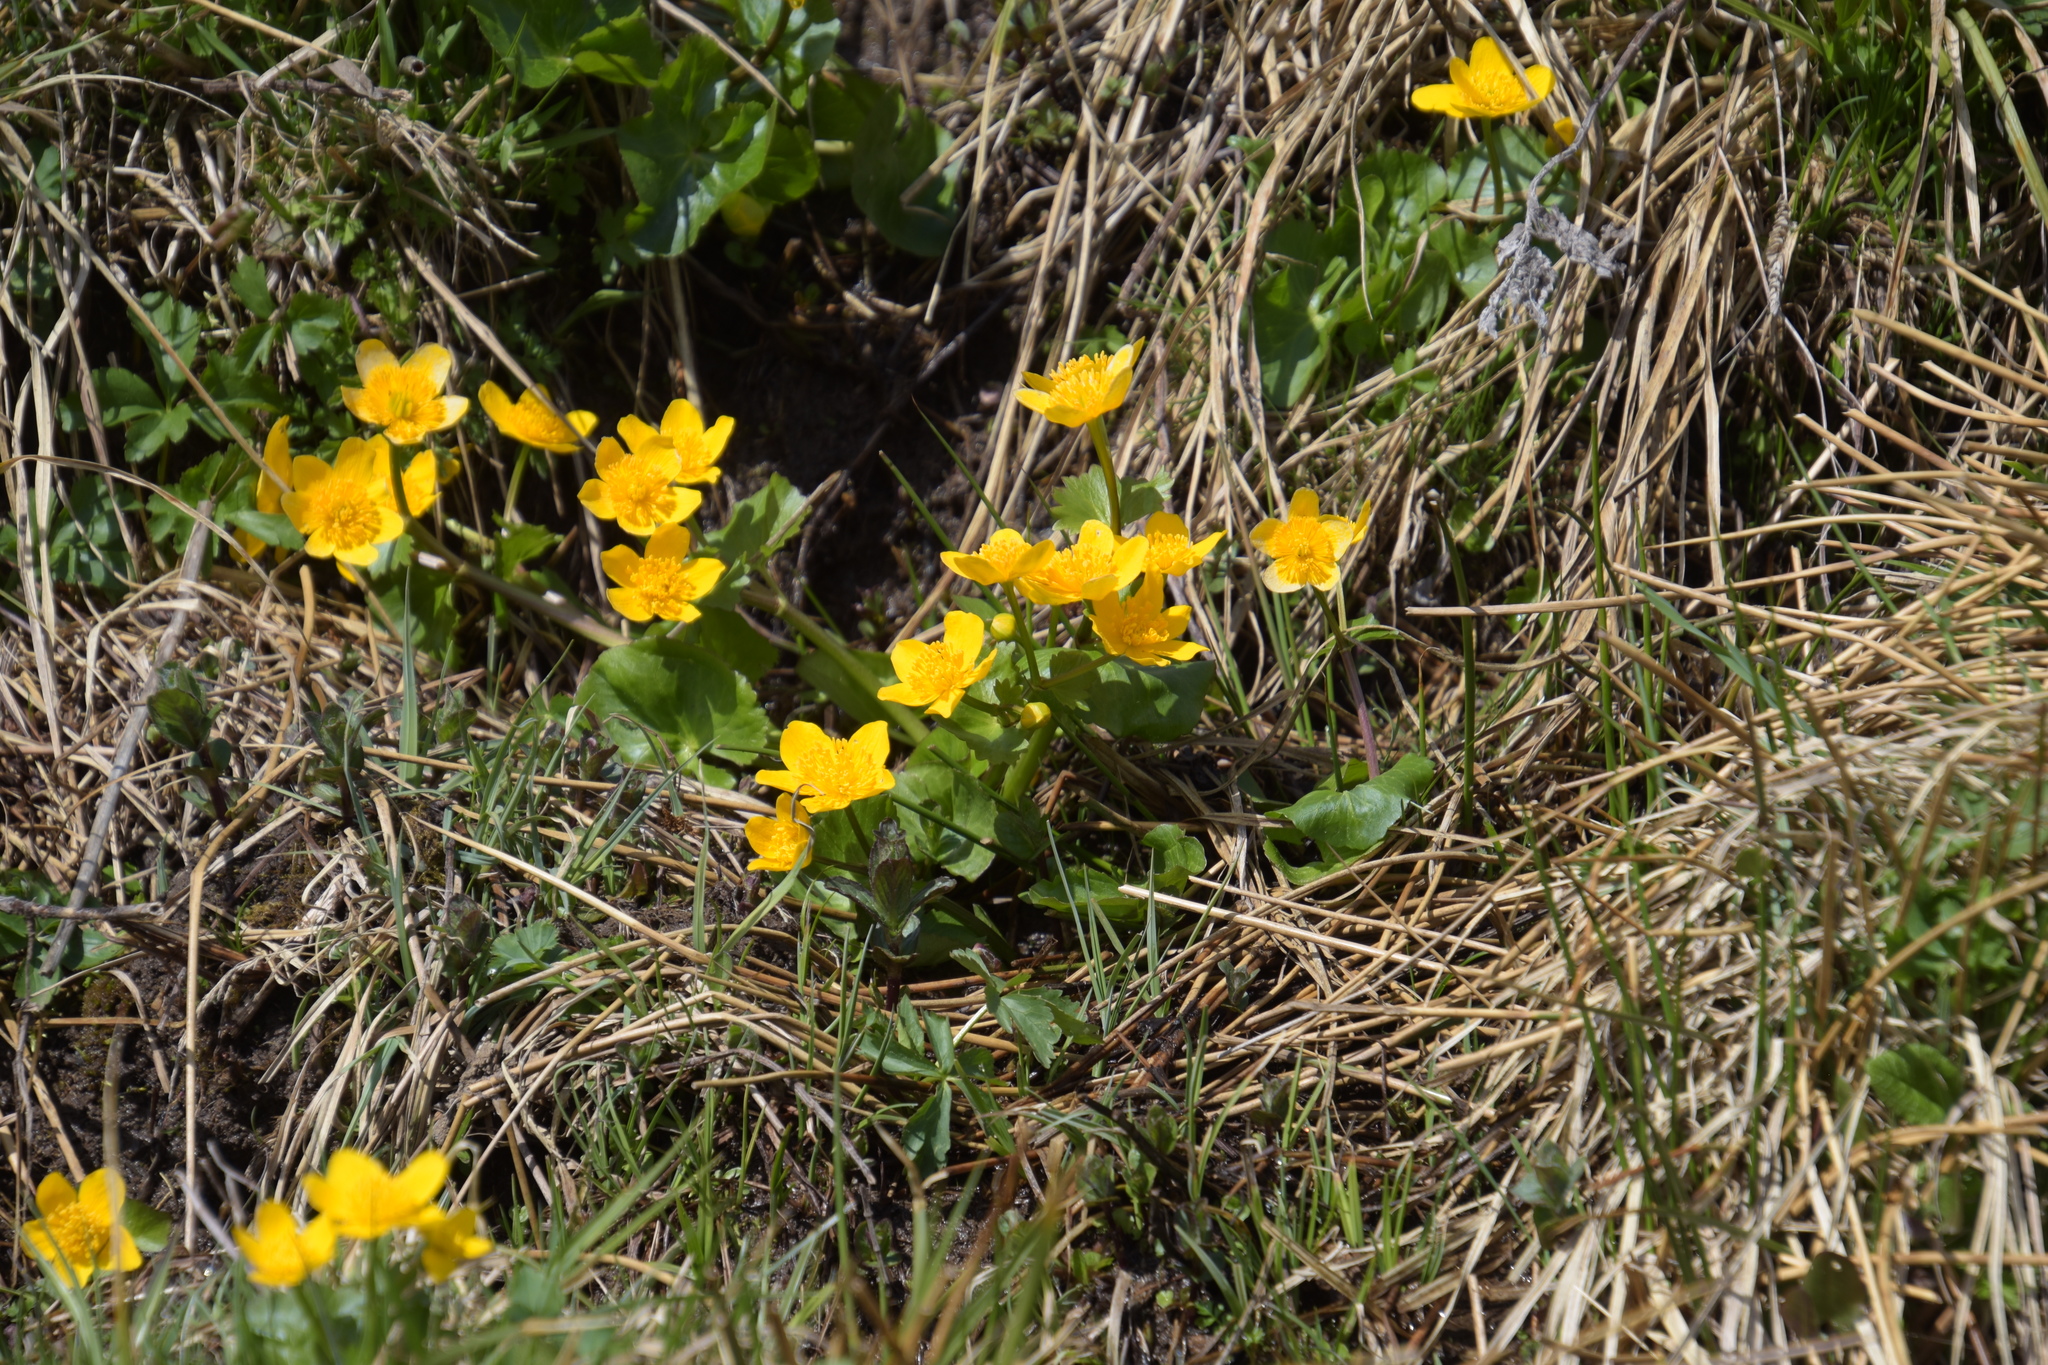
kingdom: Plantae
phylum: Tracheophyta
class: Magnoliopsida
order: Ranunculales
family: Ranunculaceae
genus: Caltha
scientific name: Caltha palustris
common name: Marsh marigold
